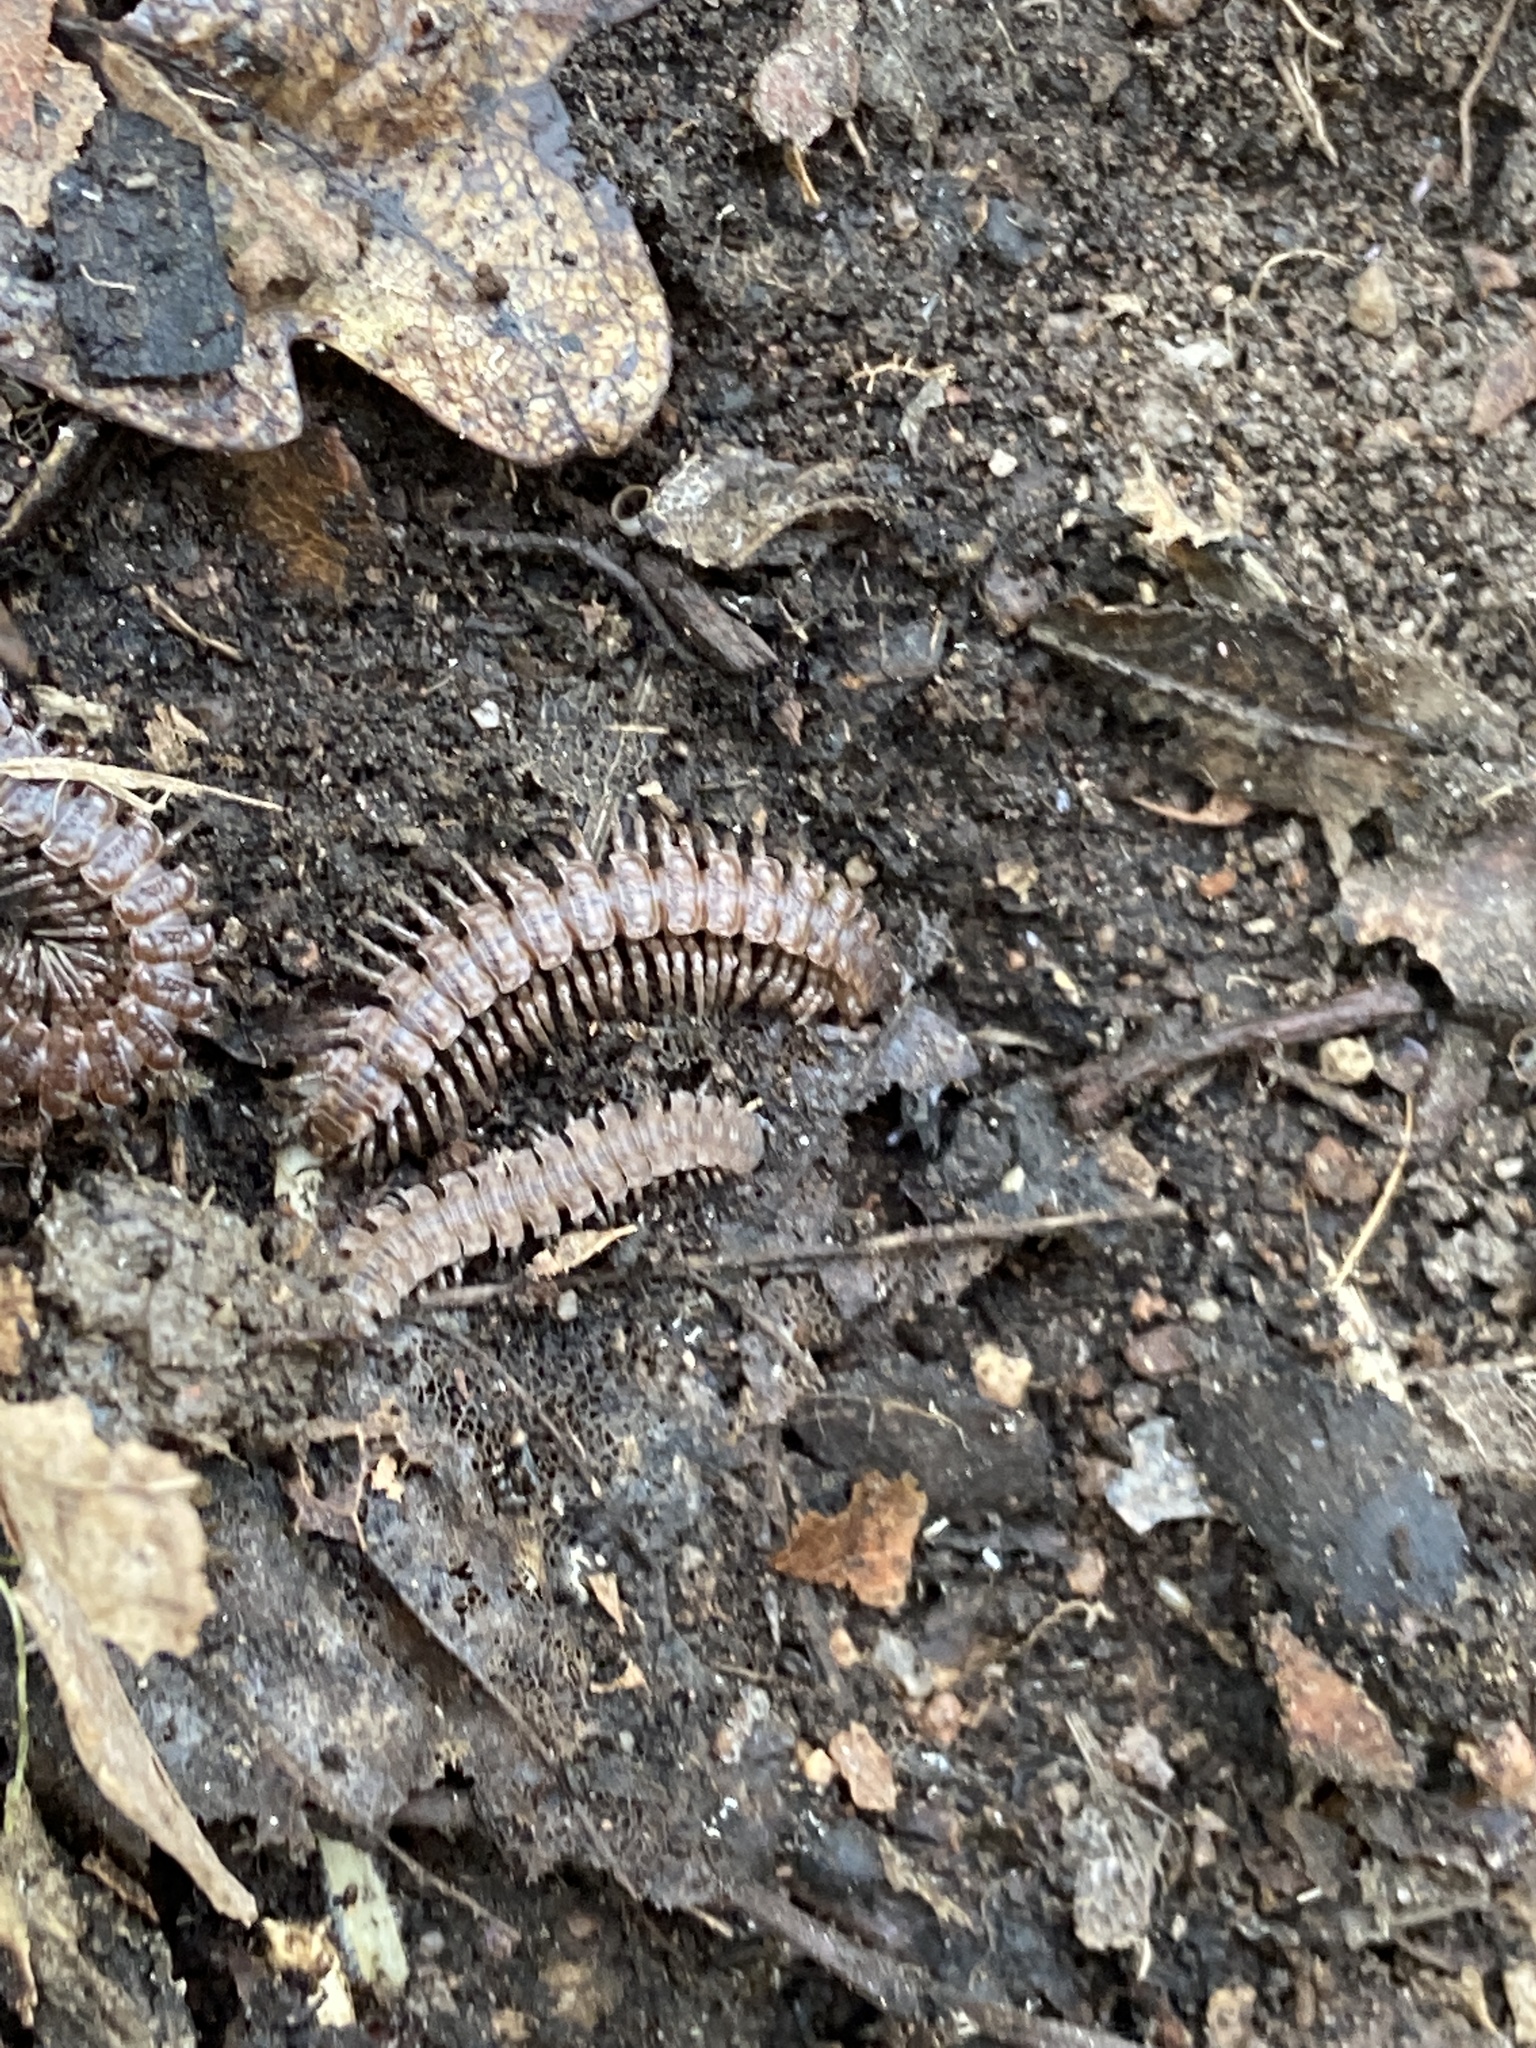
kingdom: Animalia
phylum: Arthropoda
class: Diplopoda
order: Polydesmida
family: Polydesmidae
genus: Polydesmus
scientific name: Polydesmus testaceus
